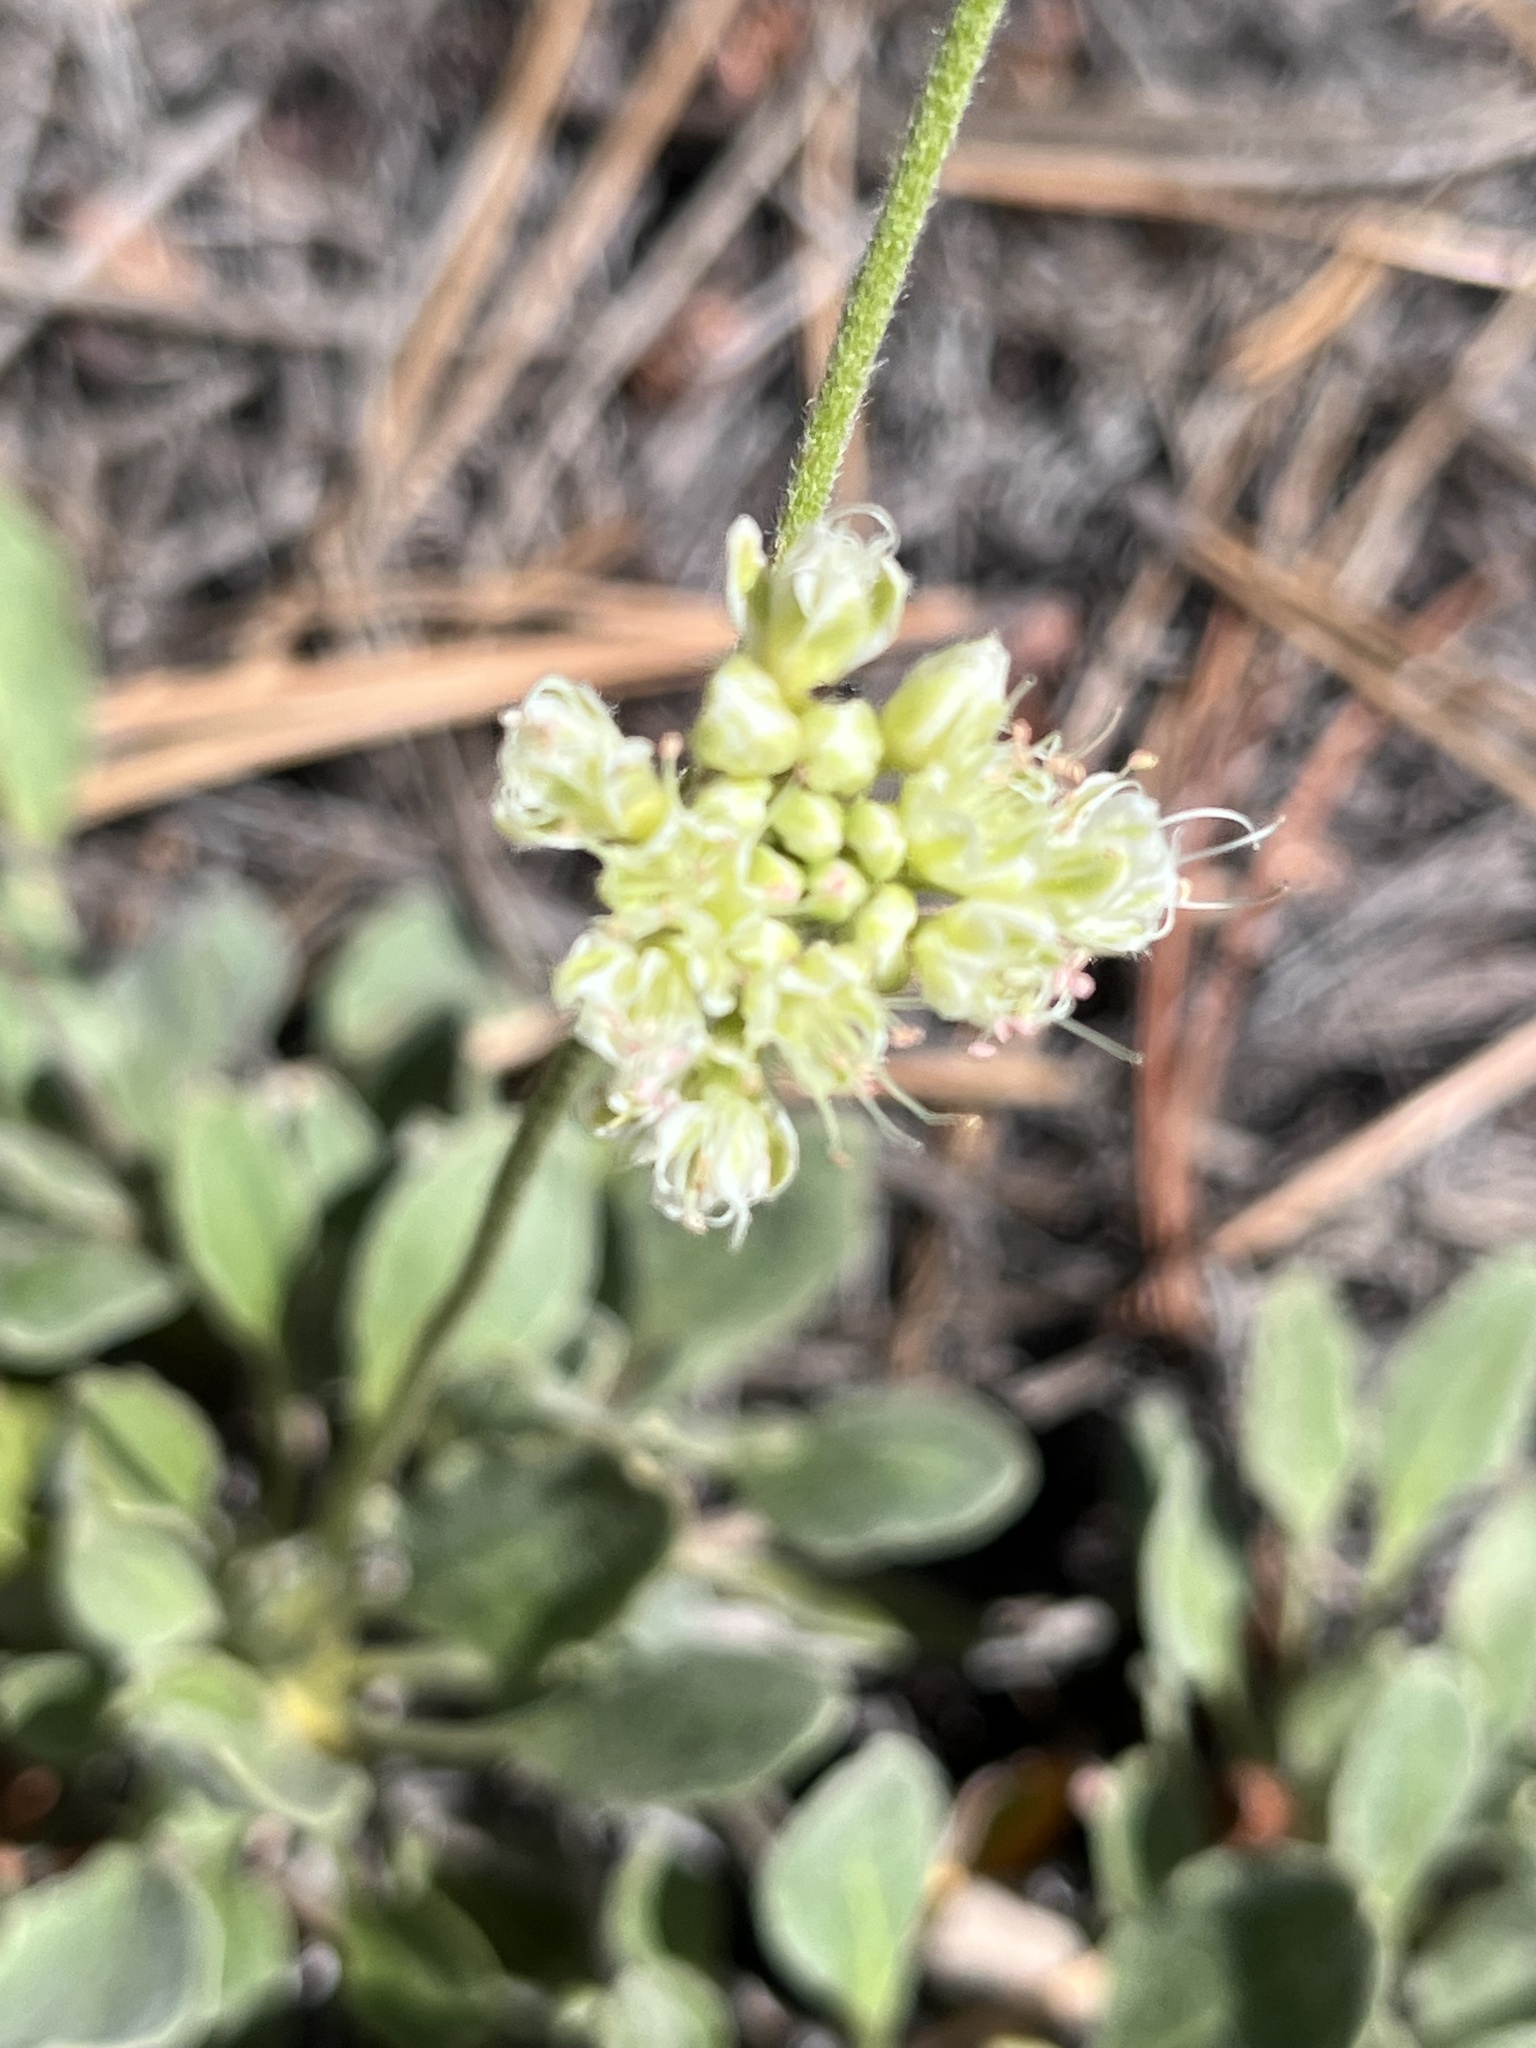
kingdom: Plantae
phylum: Tracheophyta
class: Magnoliopsida
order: Caryophyllales
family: Polygonaceae
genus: Eriogonum
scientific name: Eriogonum jamesii
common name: Antelope-sage
